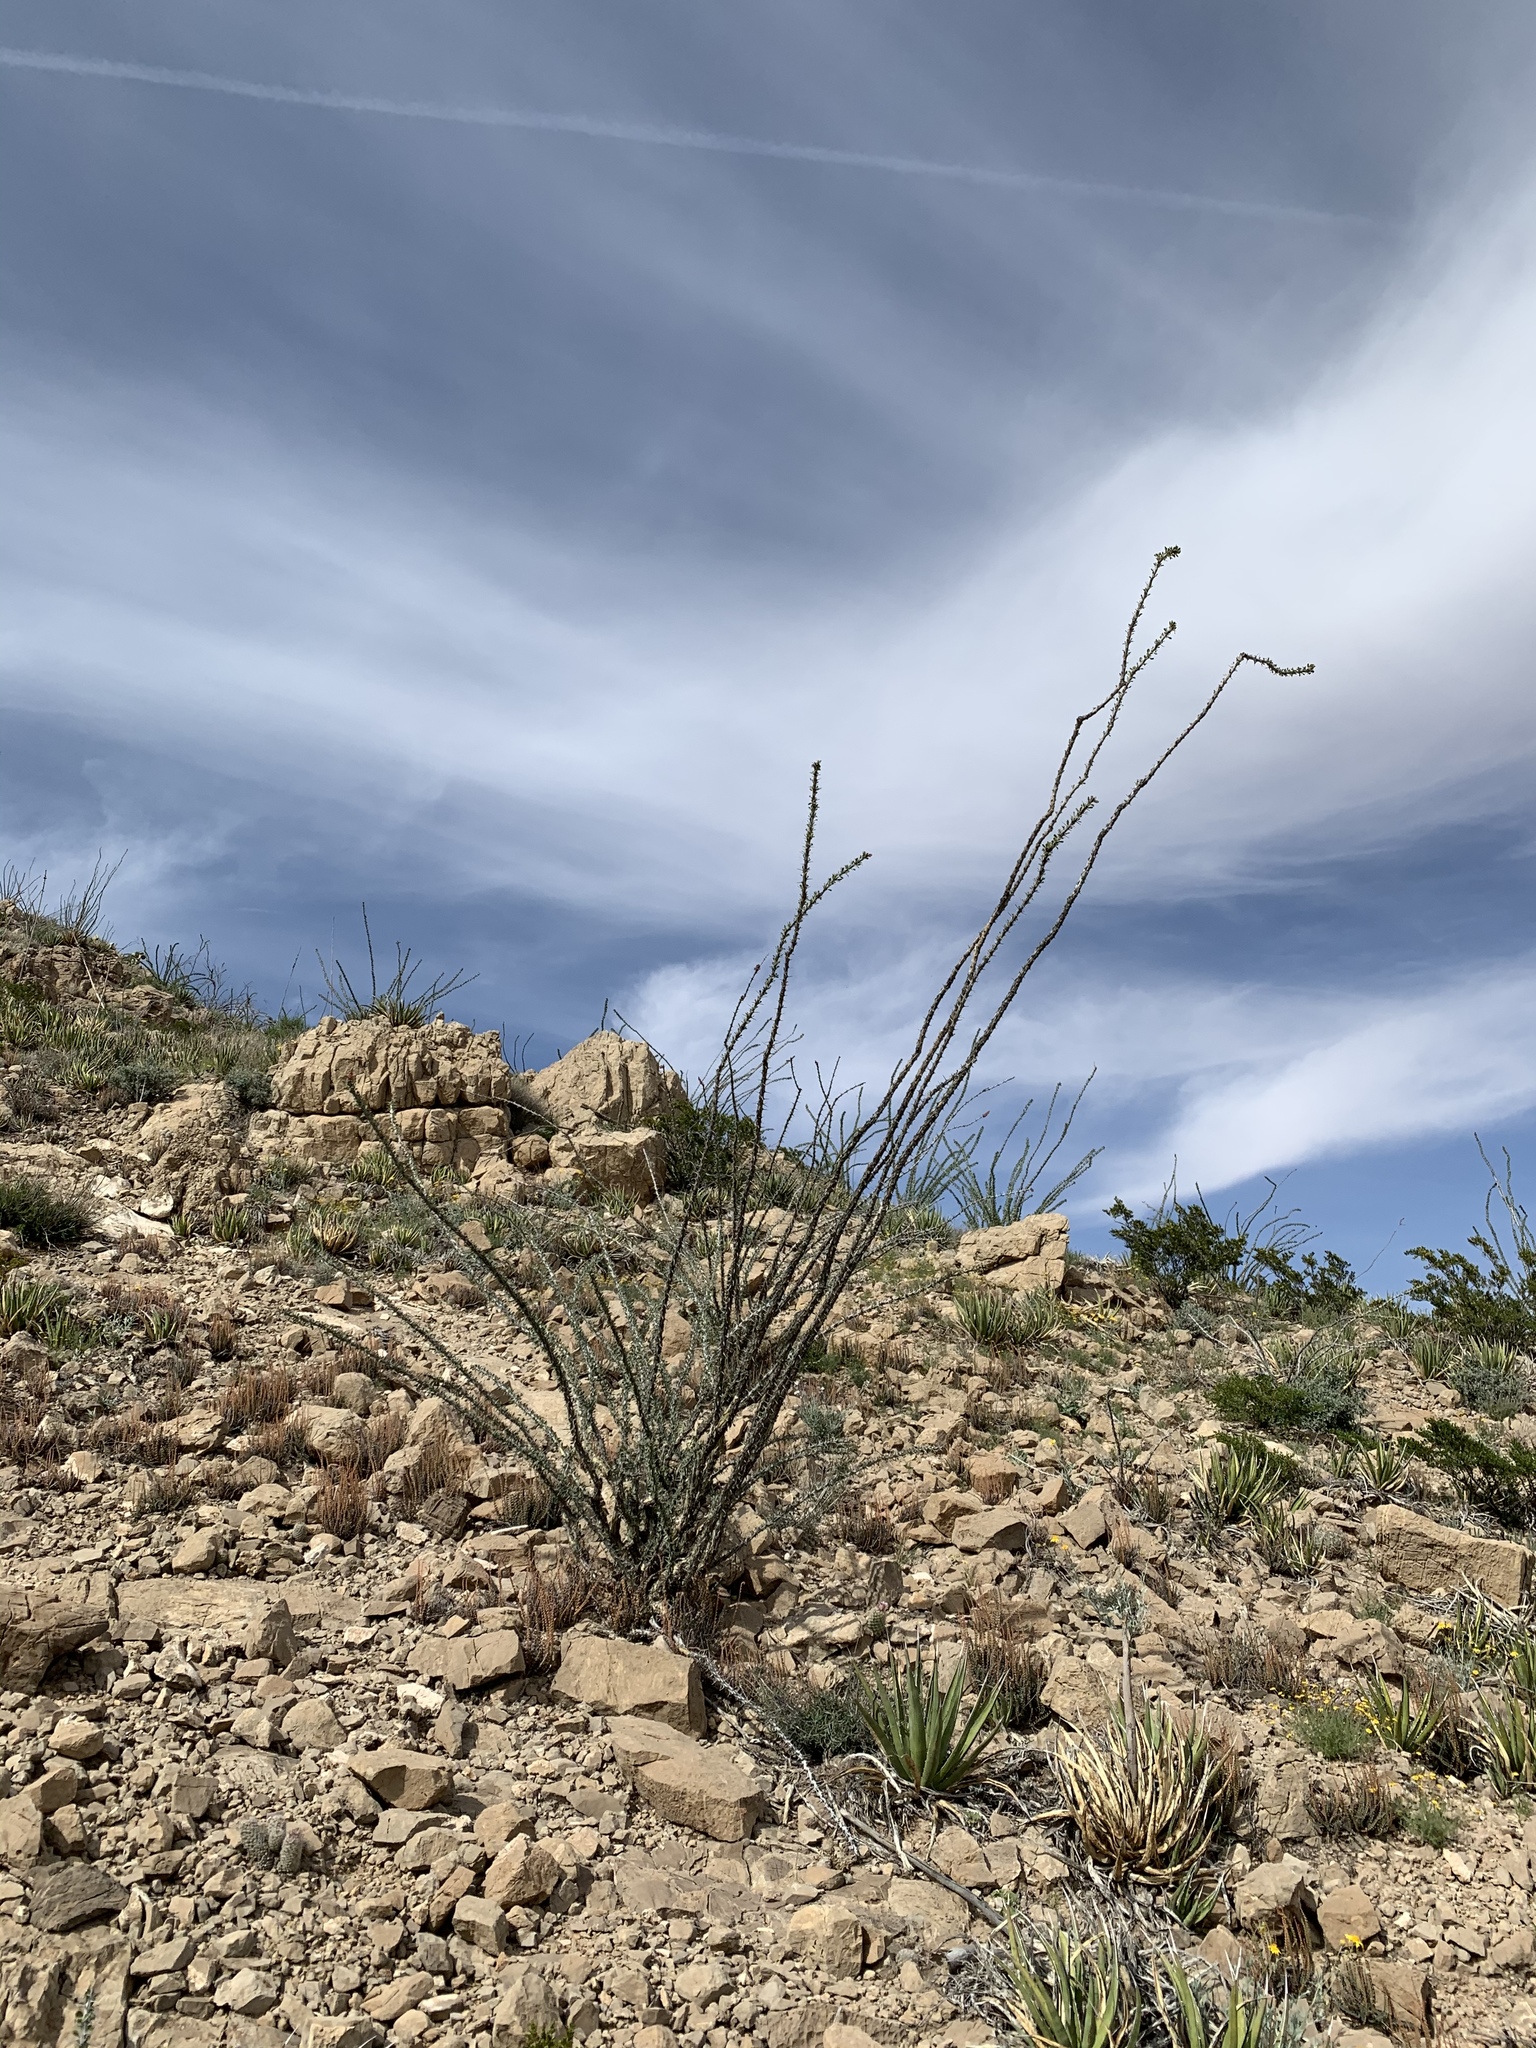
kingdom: Plantae
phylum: Tracheophyta
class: Magnoliopsida
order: Ericales
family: Fouquieriaceae
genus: Fouquieria
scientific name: Fouquieria splendens
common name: Vine-cactus
